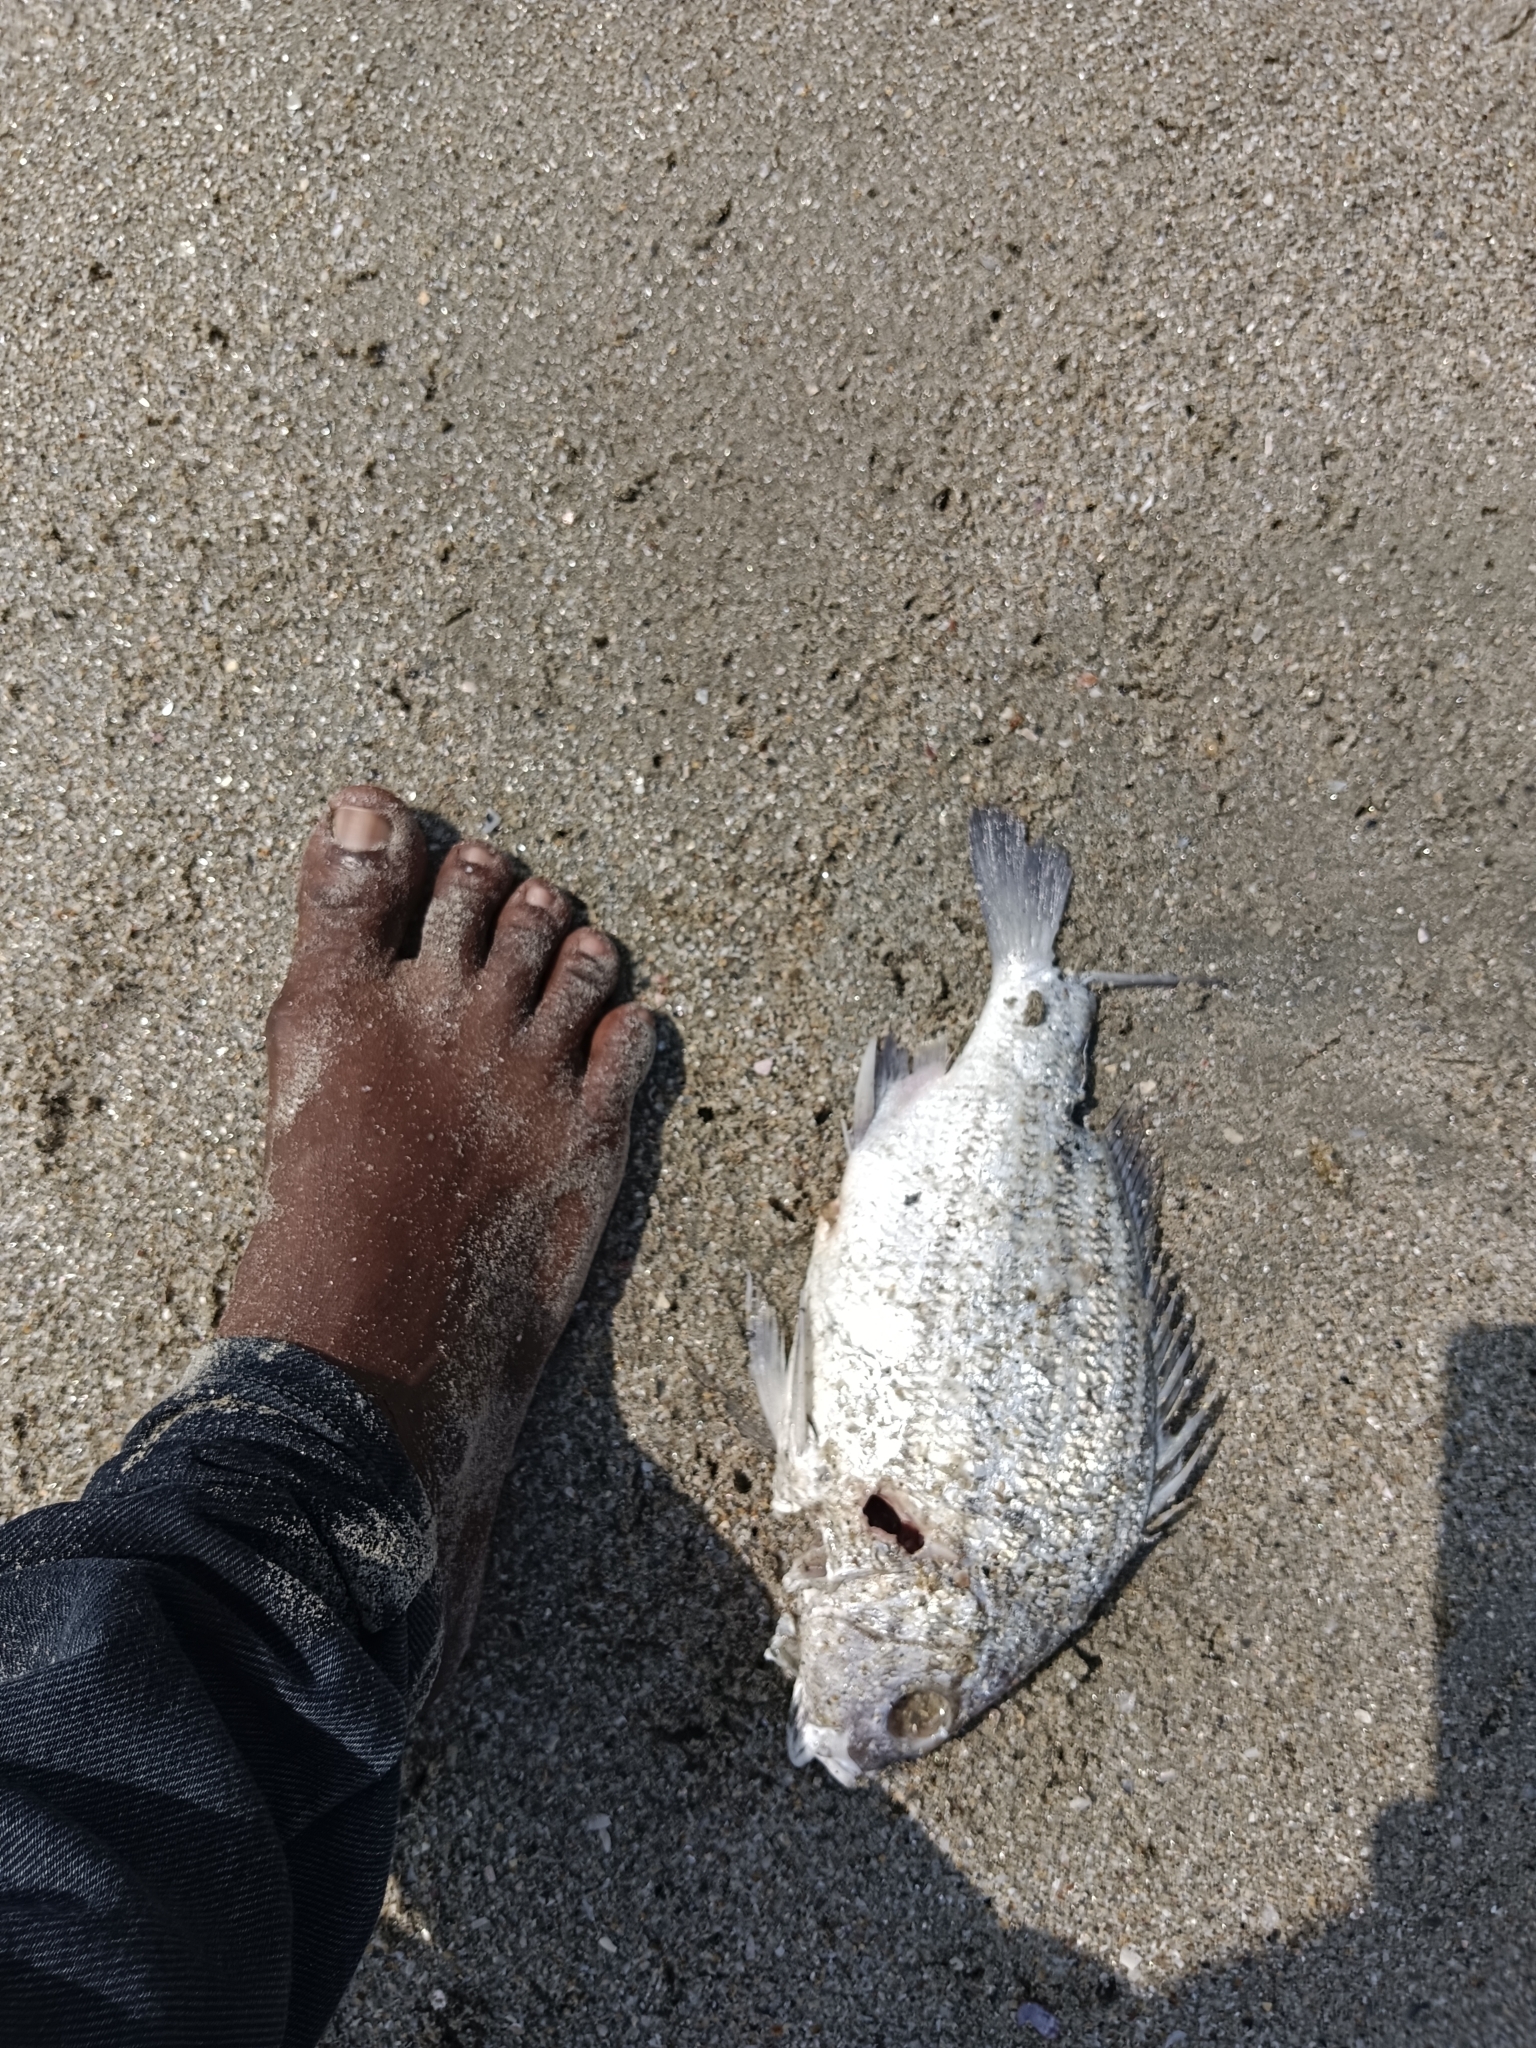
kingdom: Animalia
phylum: Chordata
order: Perciformes
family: Haemulidae
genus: Pomadasys
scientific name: Pomadasys furcatus
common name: Banded grunter
